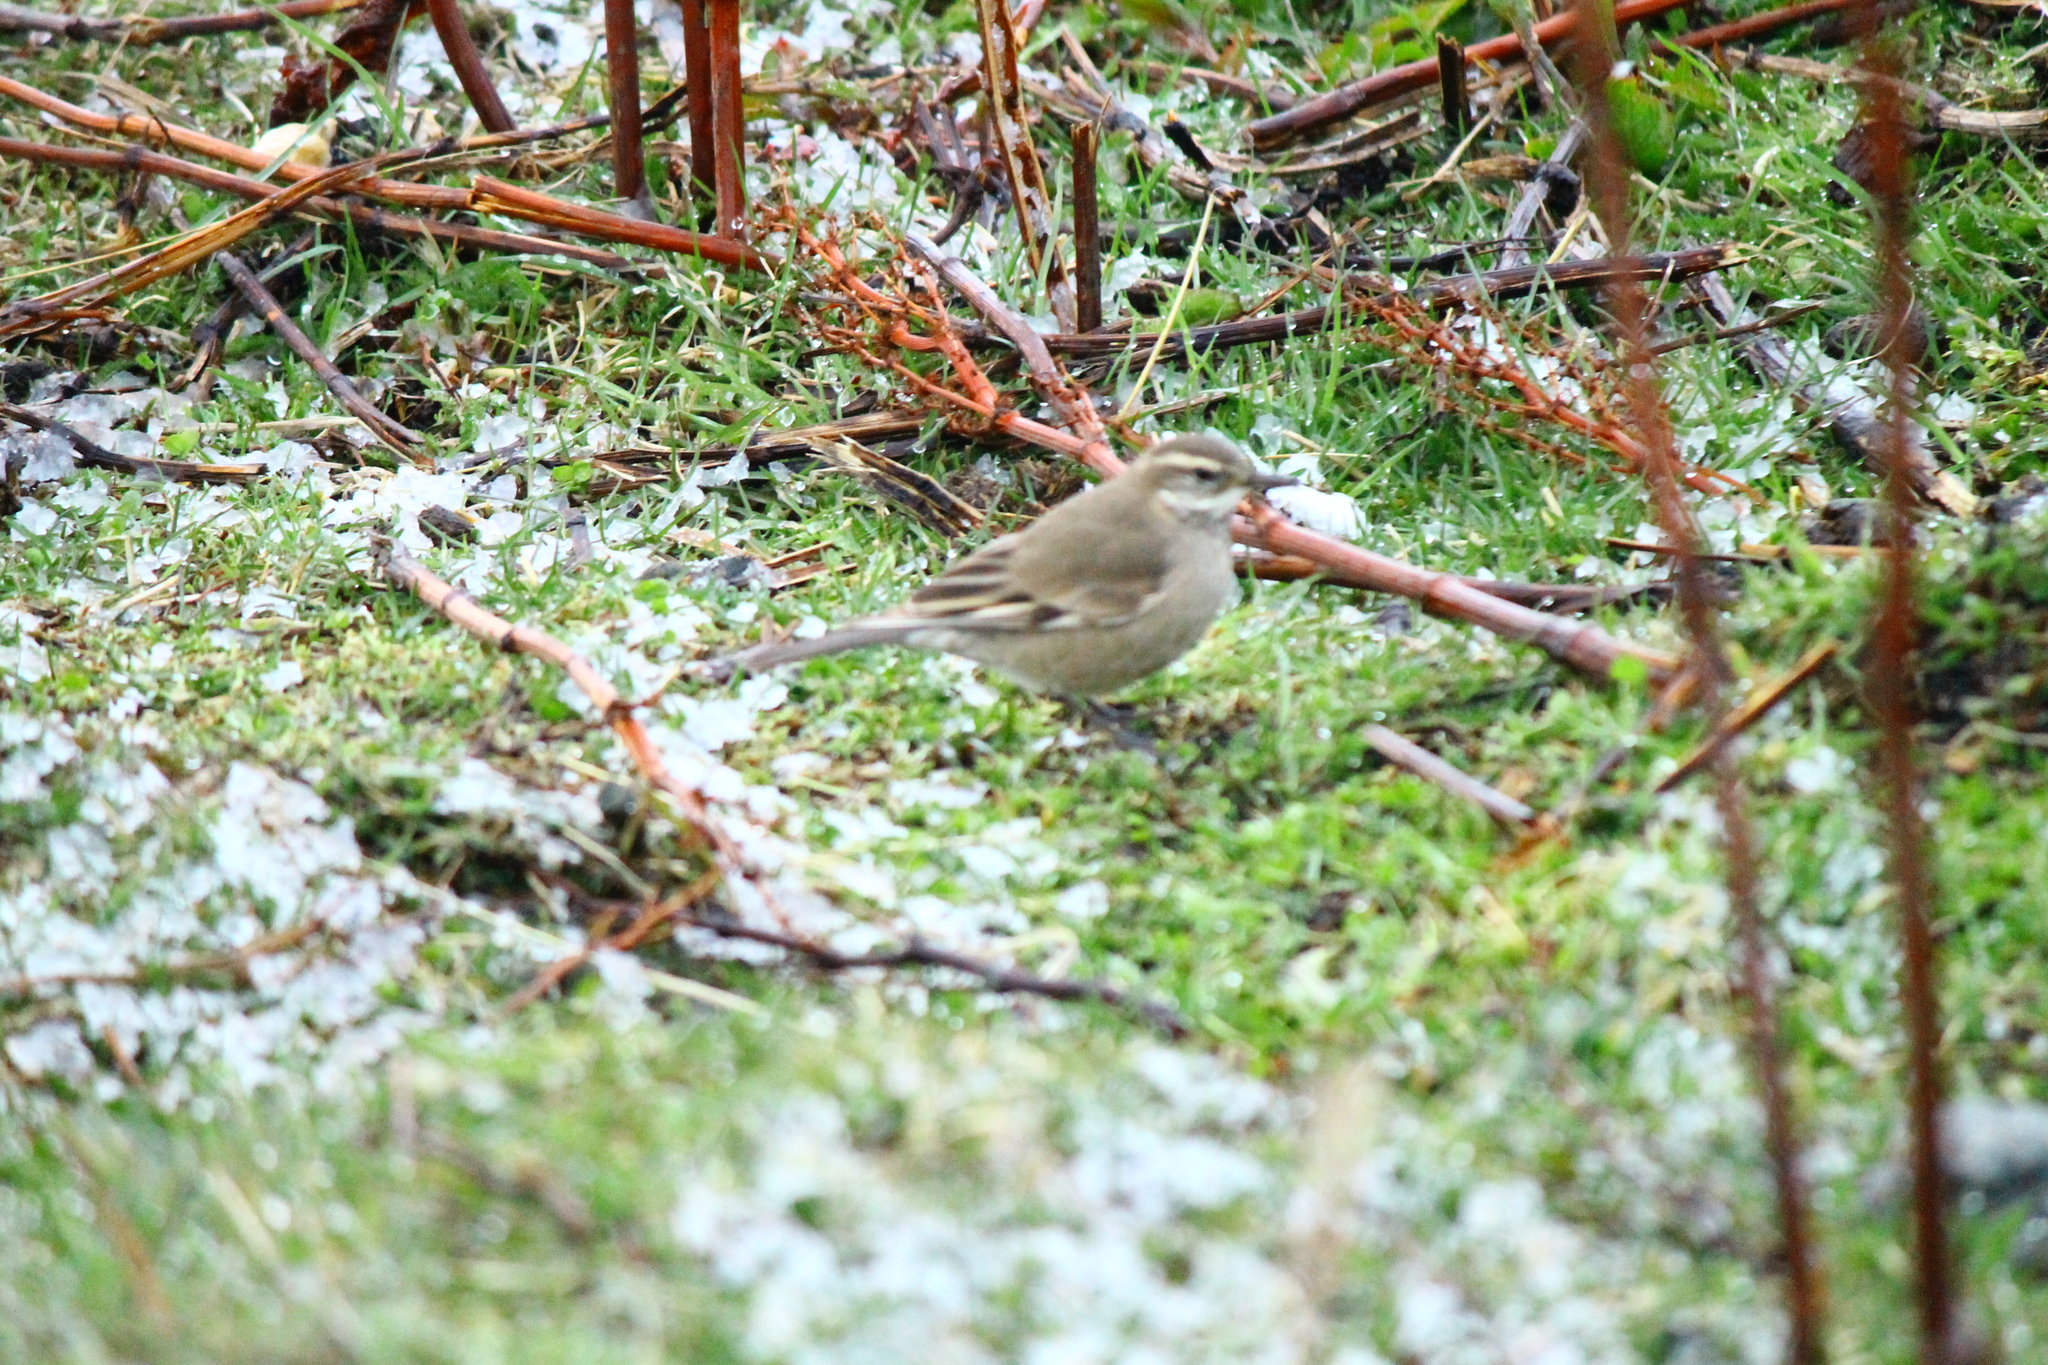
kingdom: Animalia
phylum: Chordata
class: Aves
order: Passeriformes
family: Furnariidae
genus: Cinclodes
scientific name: Cinclodes fuscus
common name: Buff-winged cinclodes
